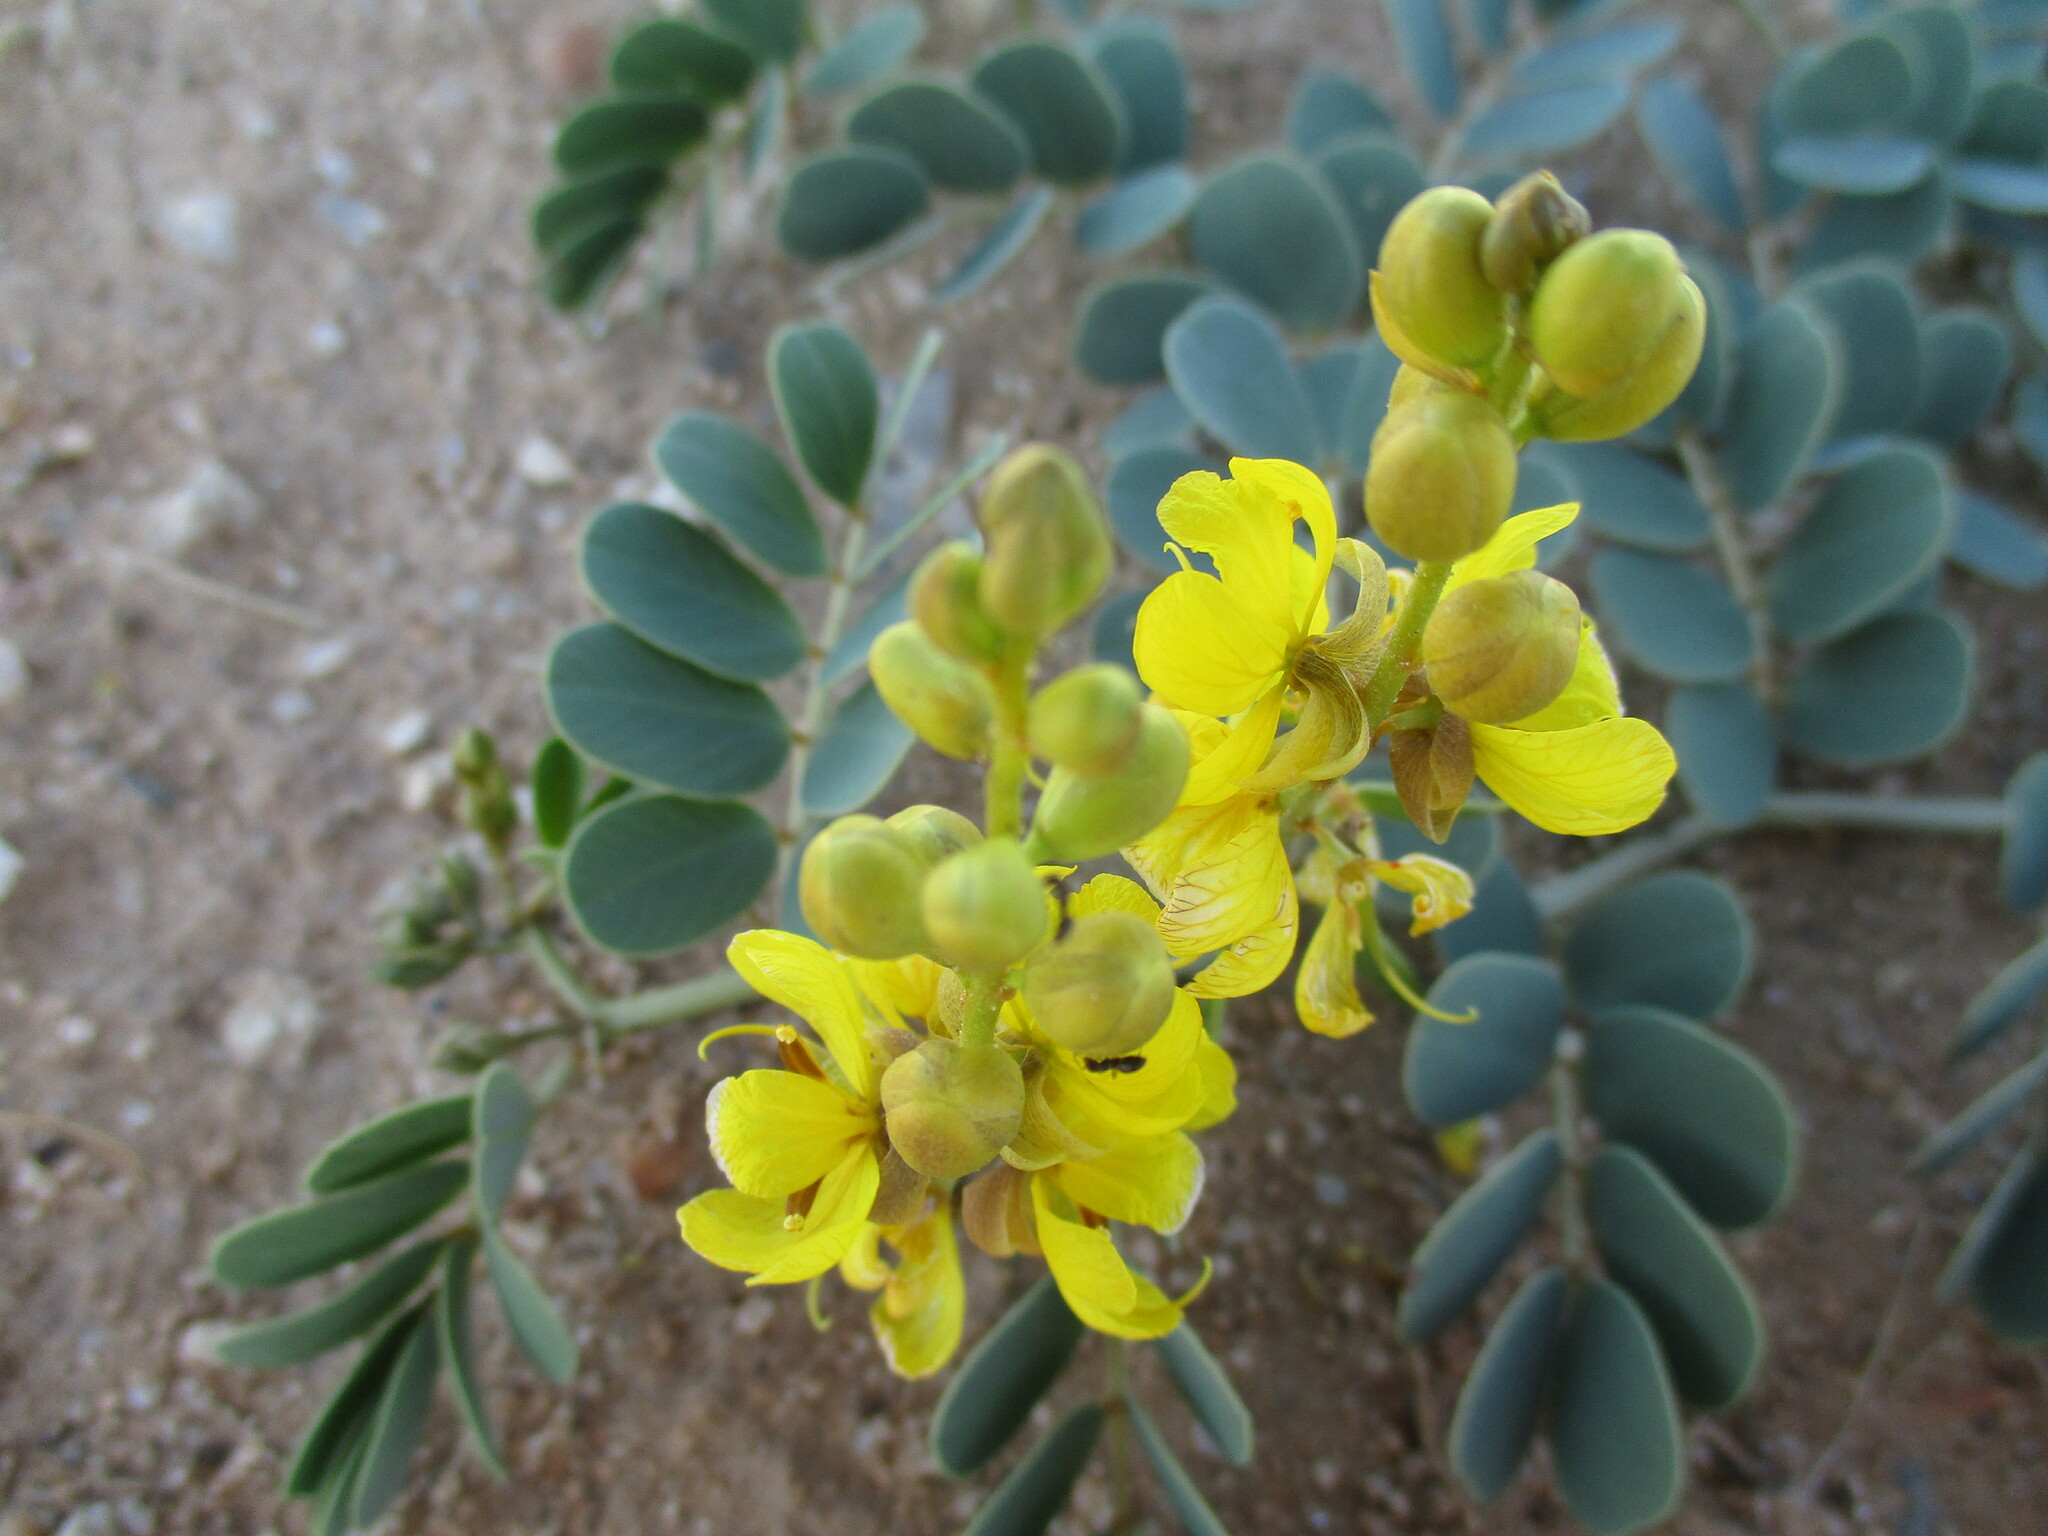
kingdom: Plantae
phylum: Tracheophyta
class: Magnoliopsida
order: Fabales
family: Fabaceae
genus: Senna
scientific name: Senna italica
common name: Port royal senna
